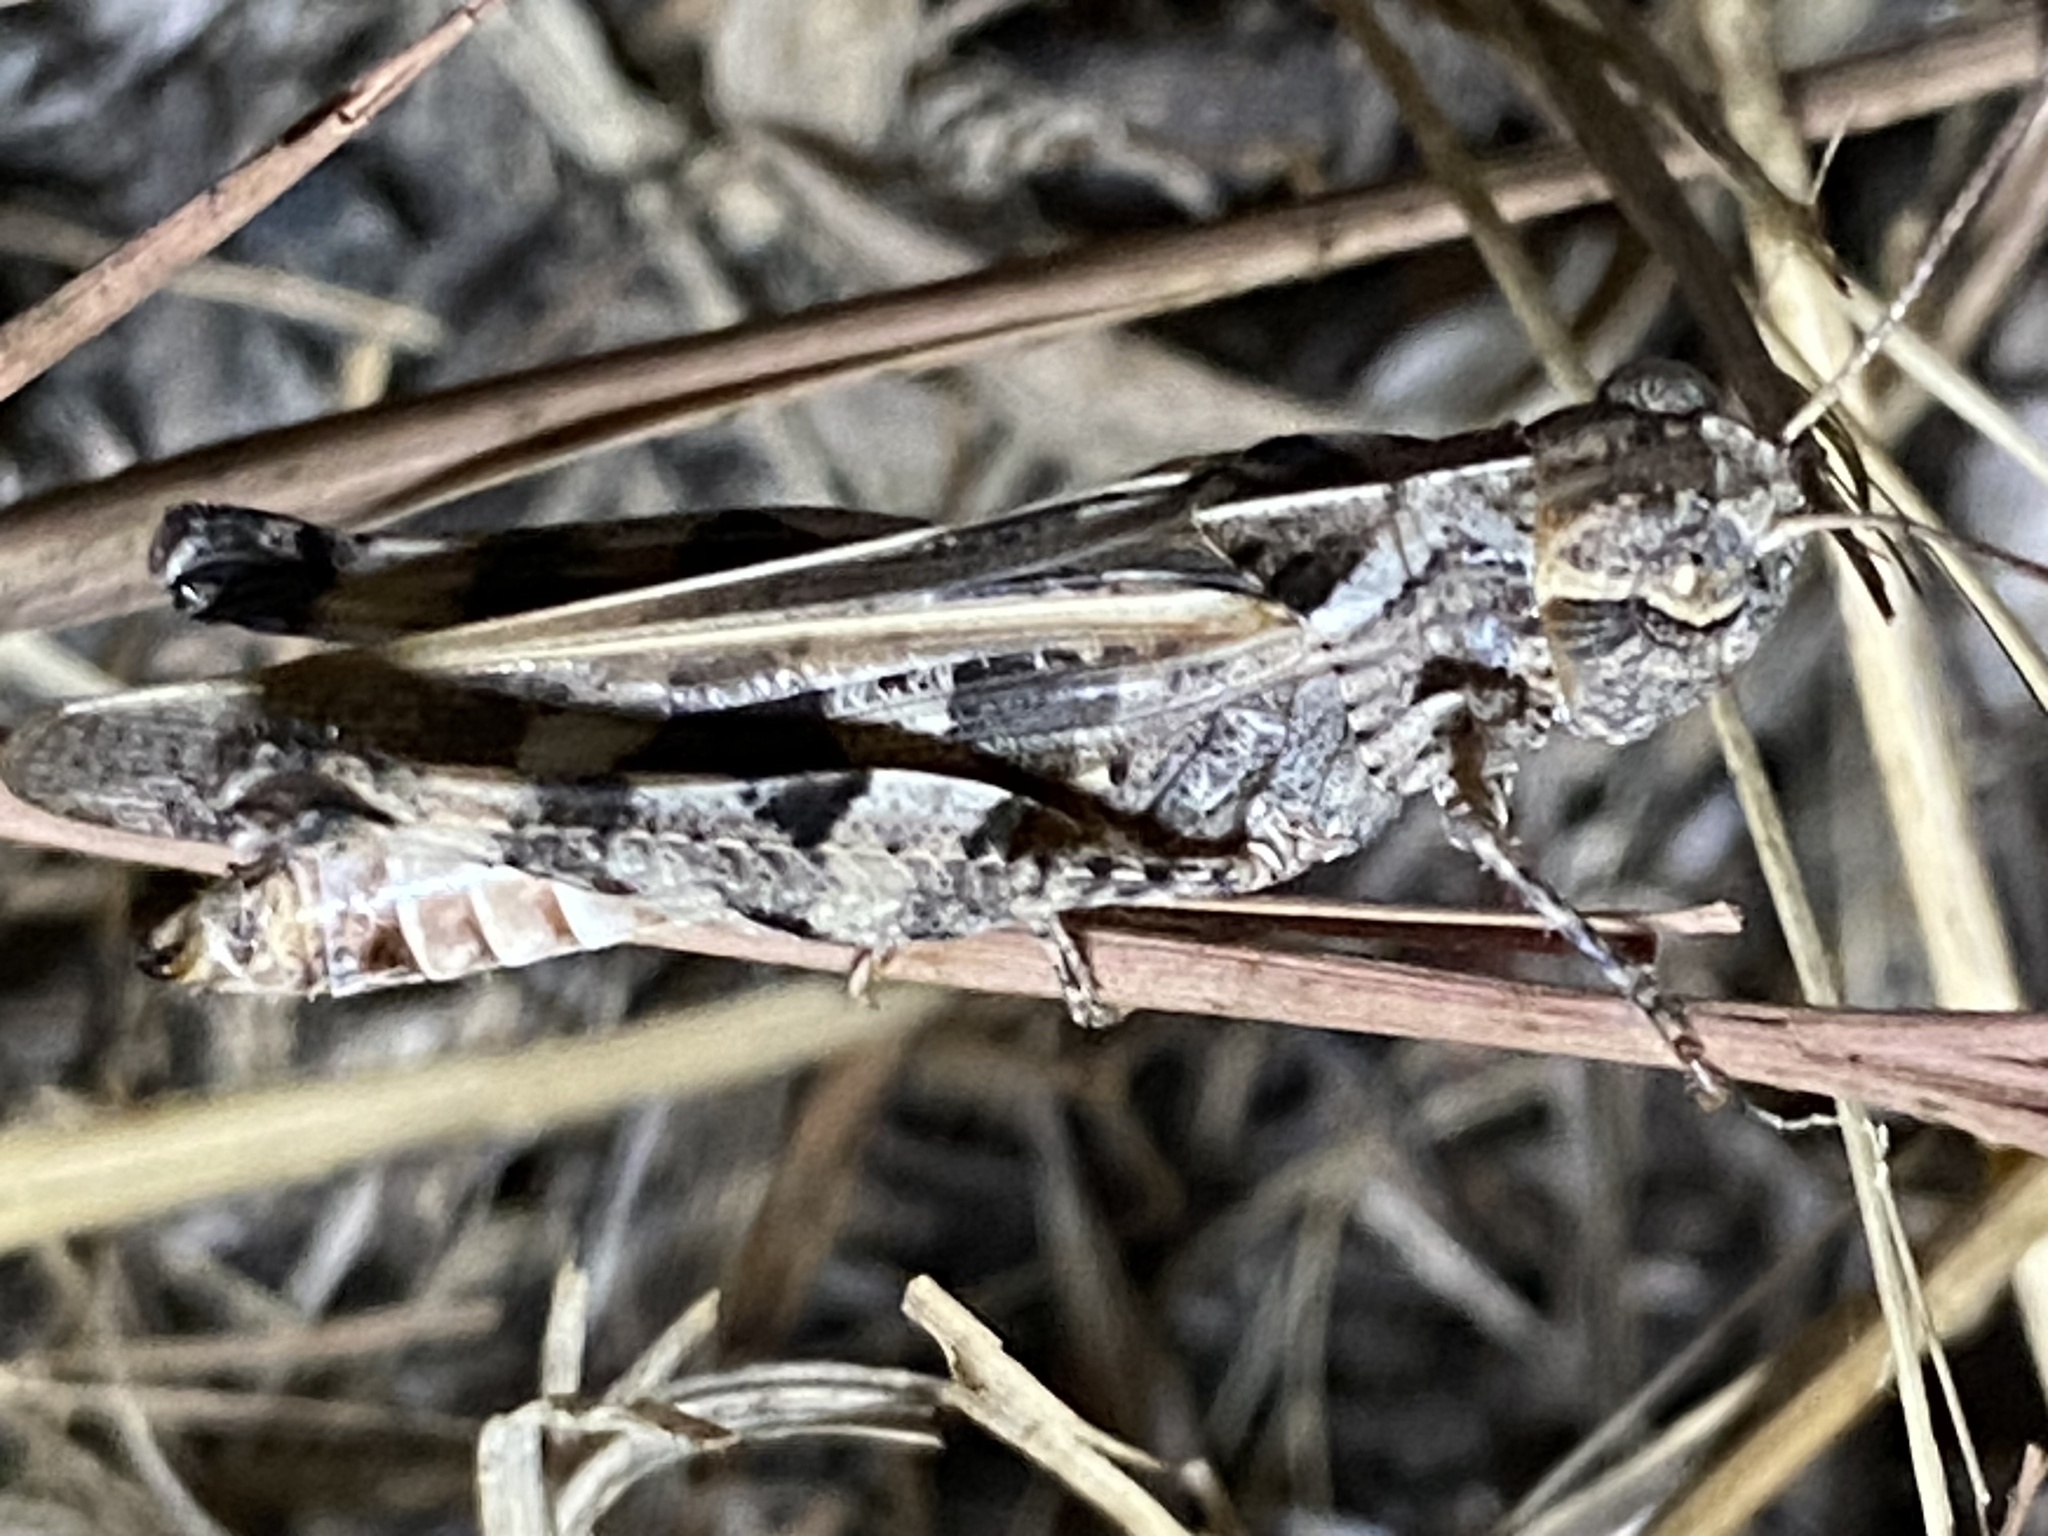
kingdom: Animalia
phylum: Arthropoda
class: Insecta
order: Orthoptera
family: Acrididae
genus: Encoptolophus
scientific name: Encoptolophus costalis
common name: Dusky grasshopper
